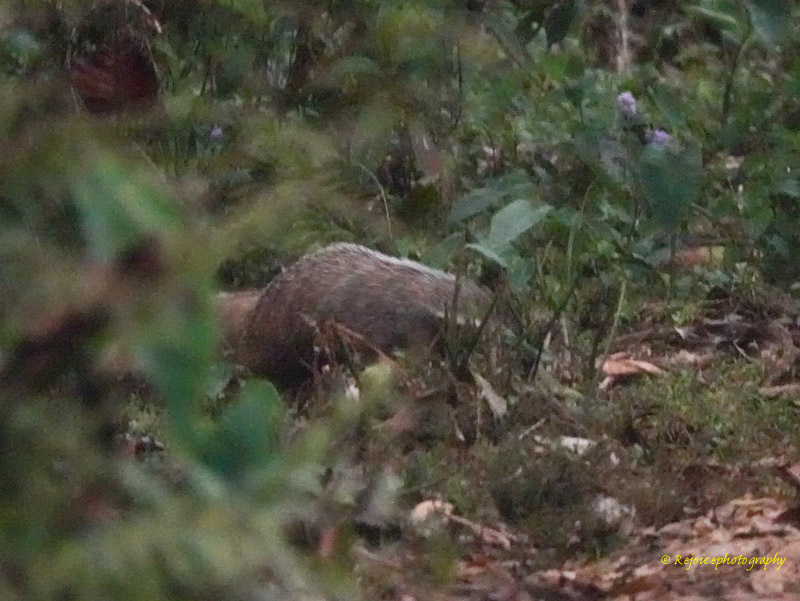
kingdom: Animalia
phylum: Chordata
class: Mammalia
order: Carnivora
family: Herpestidae
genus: Herpestes
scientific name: Herpestes urva
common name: Crab-eating mongoose
